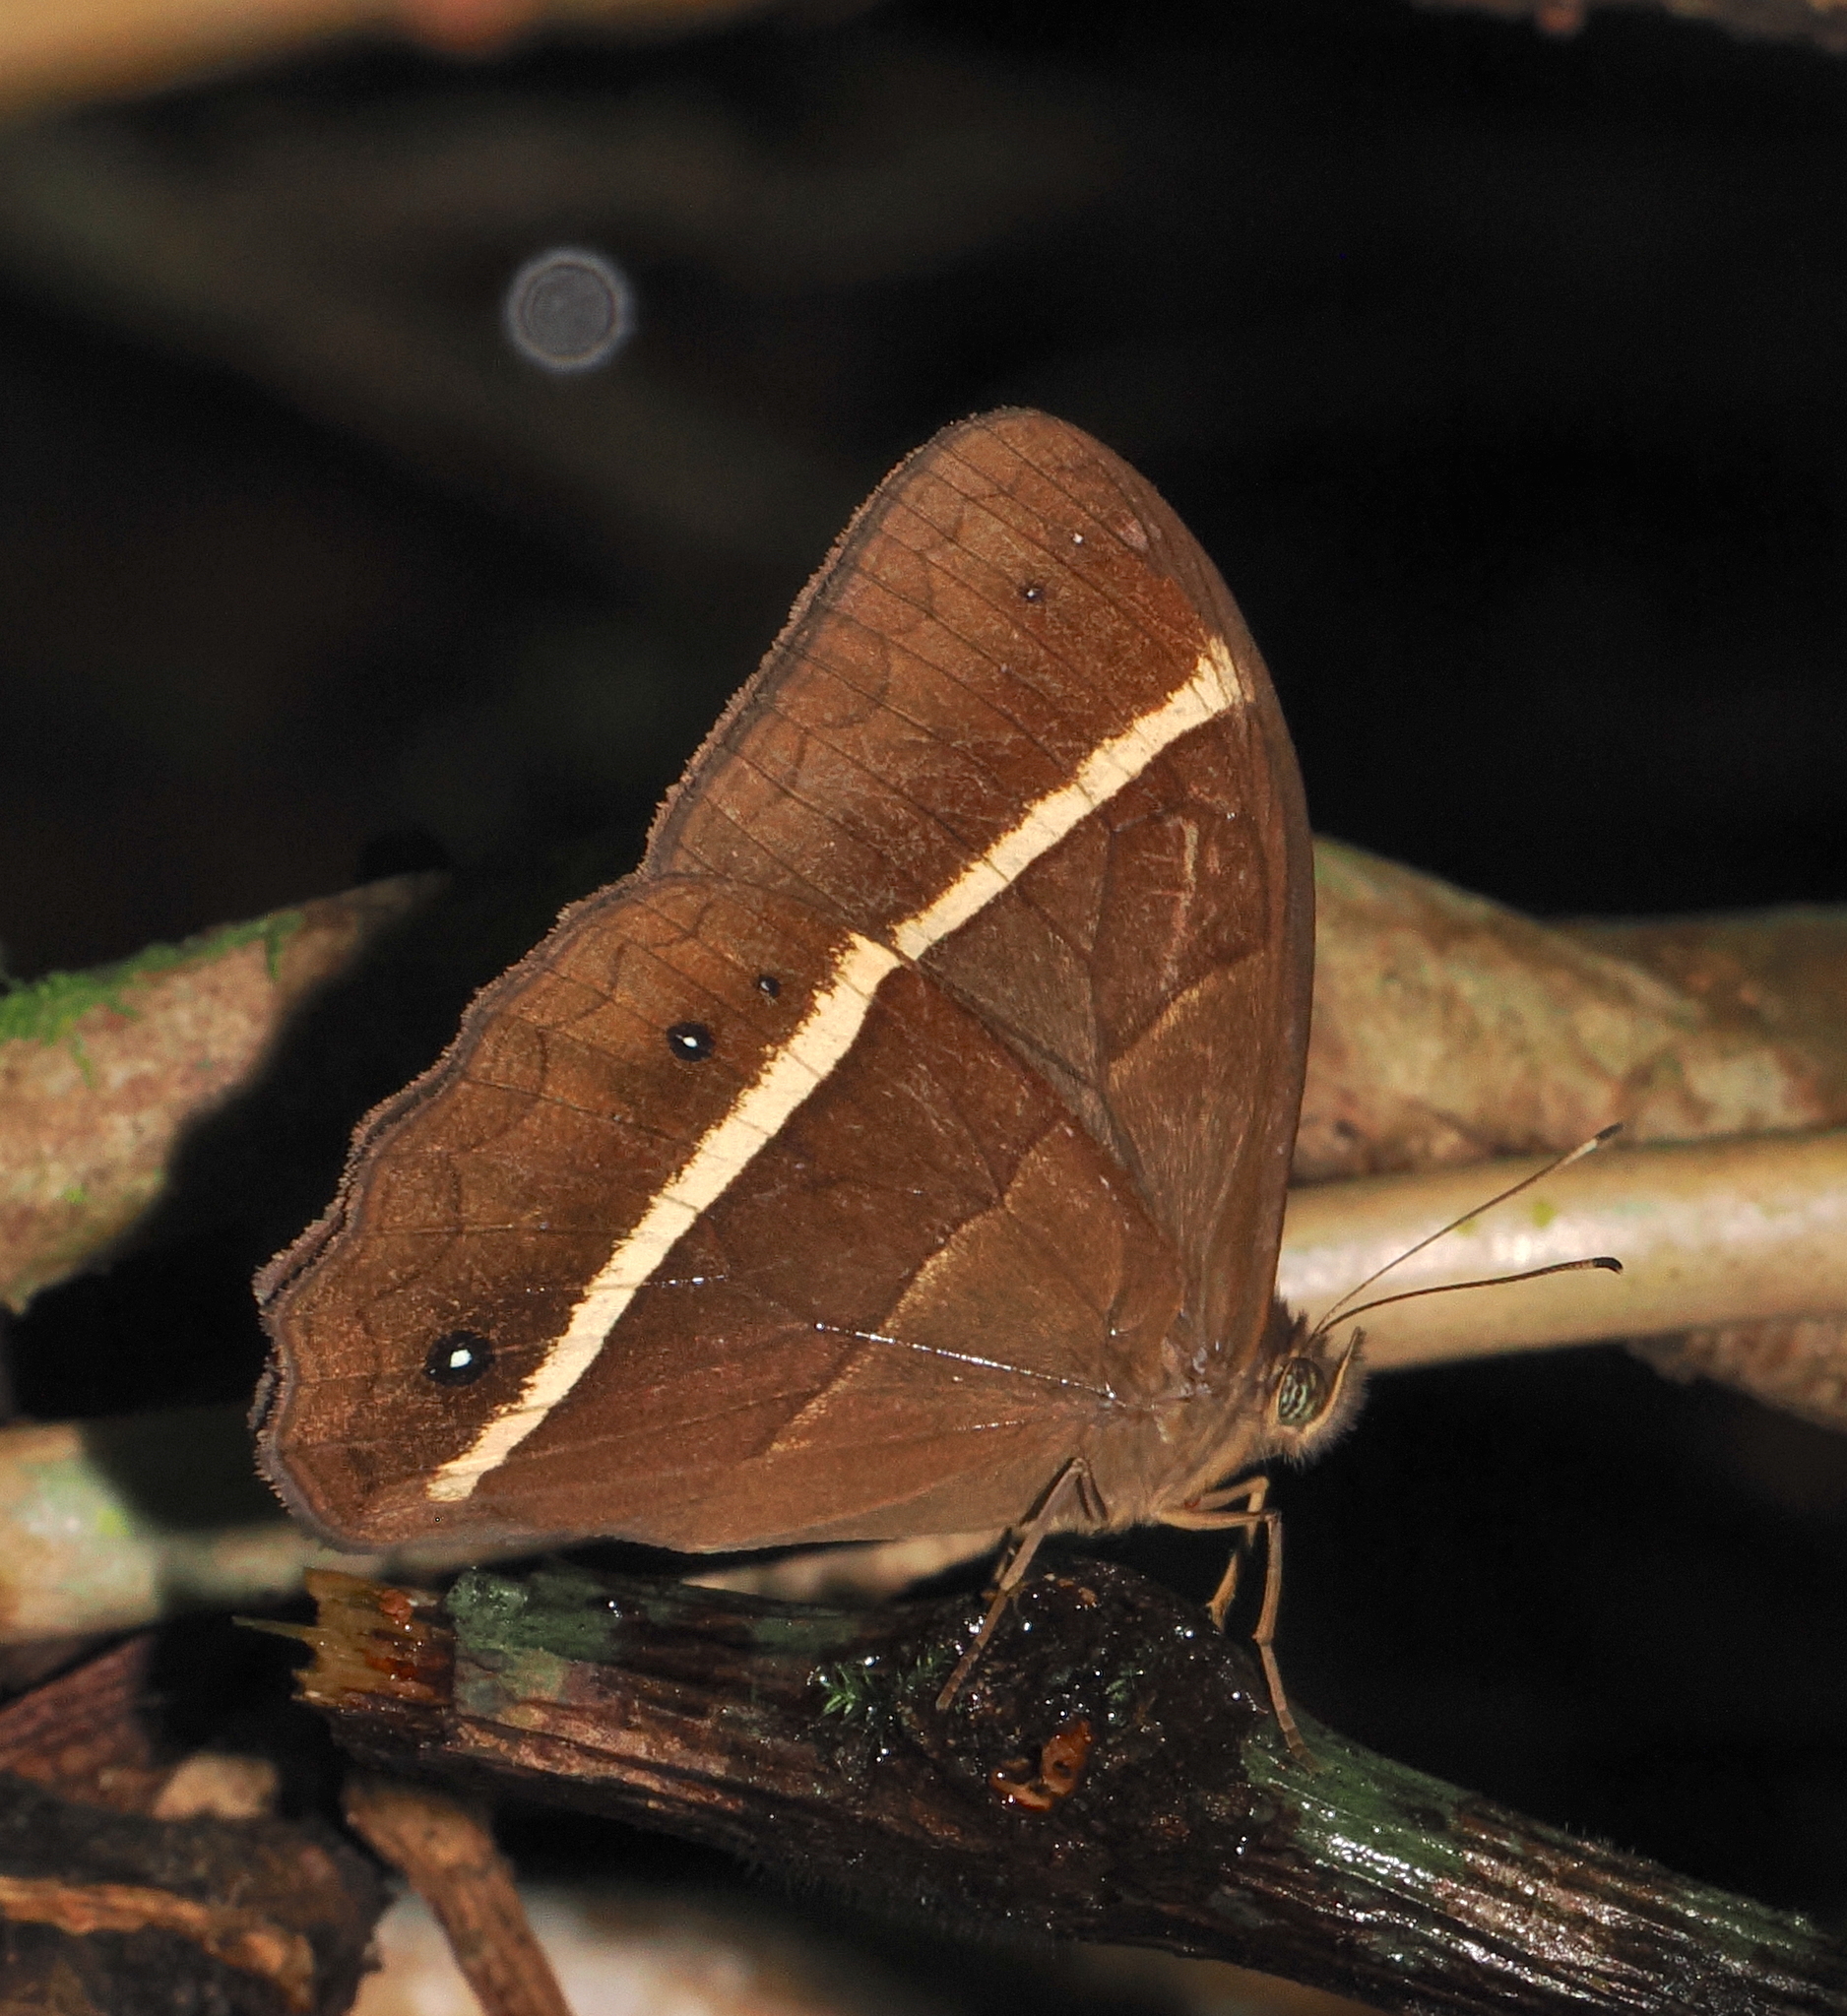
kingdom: Animalia
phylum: Arthropoda
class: Insecta
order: Lepidoptera
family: Nymphalidae
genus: Parataygetis
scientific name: Parataygetis lineata
